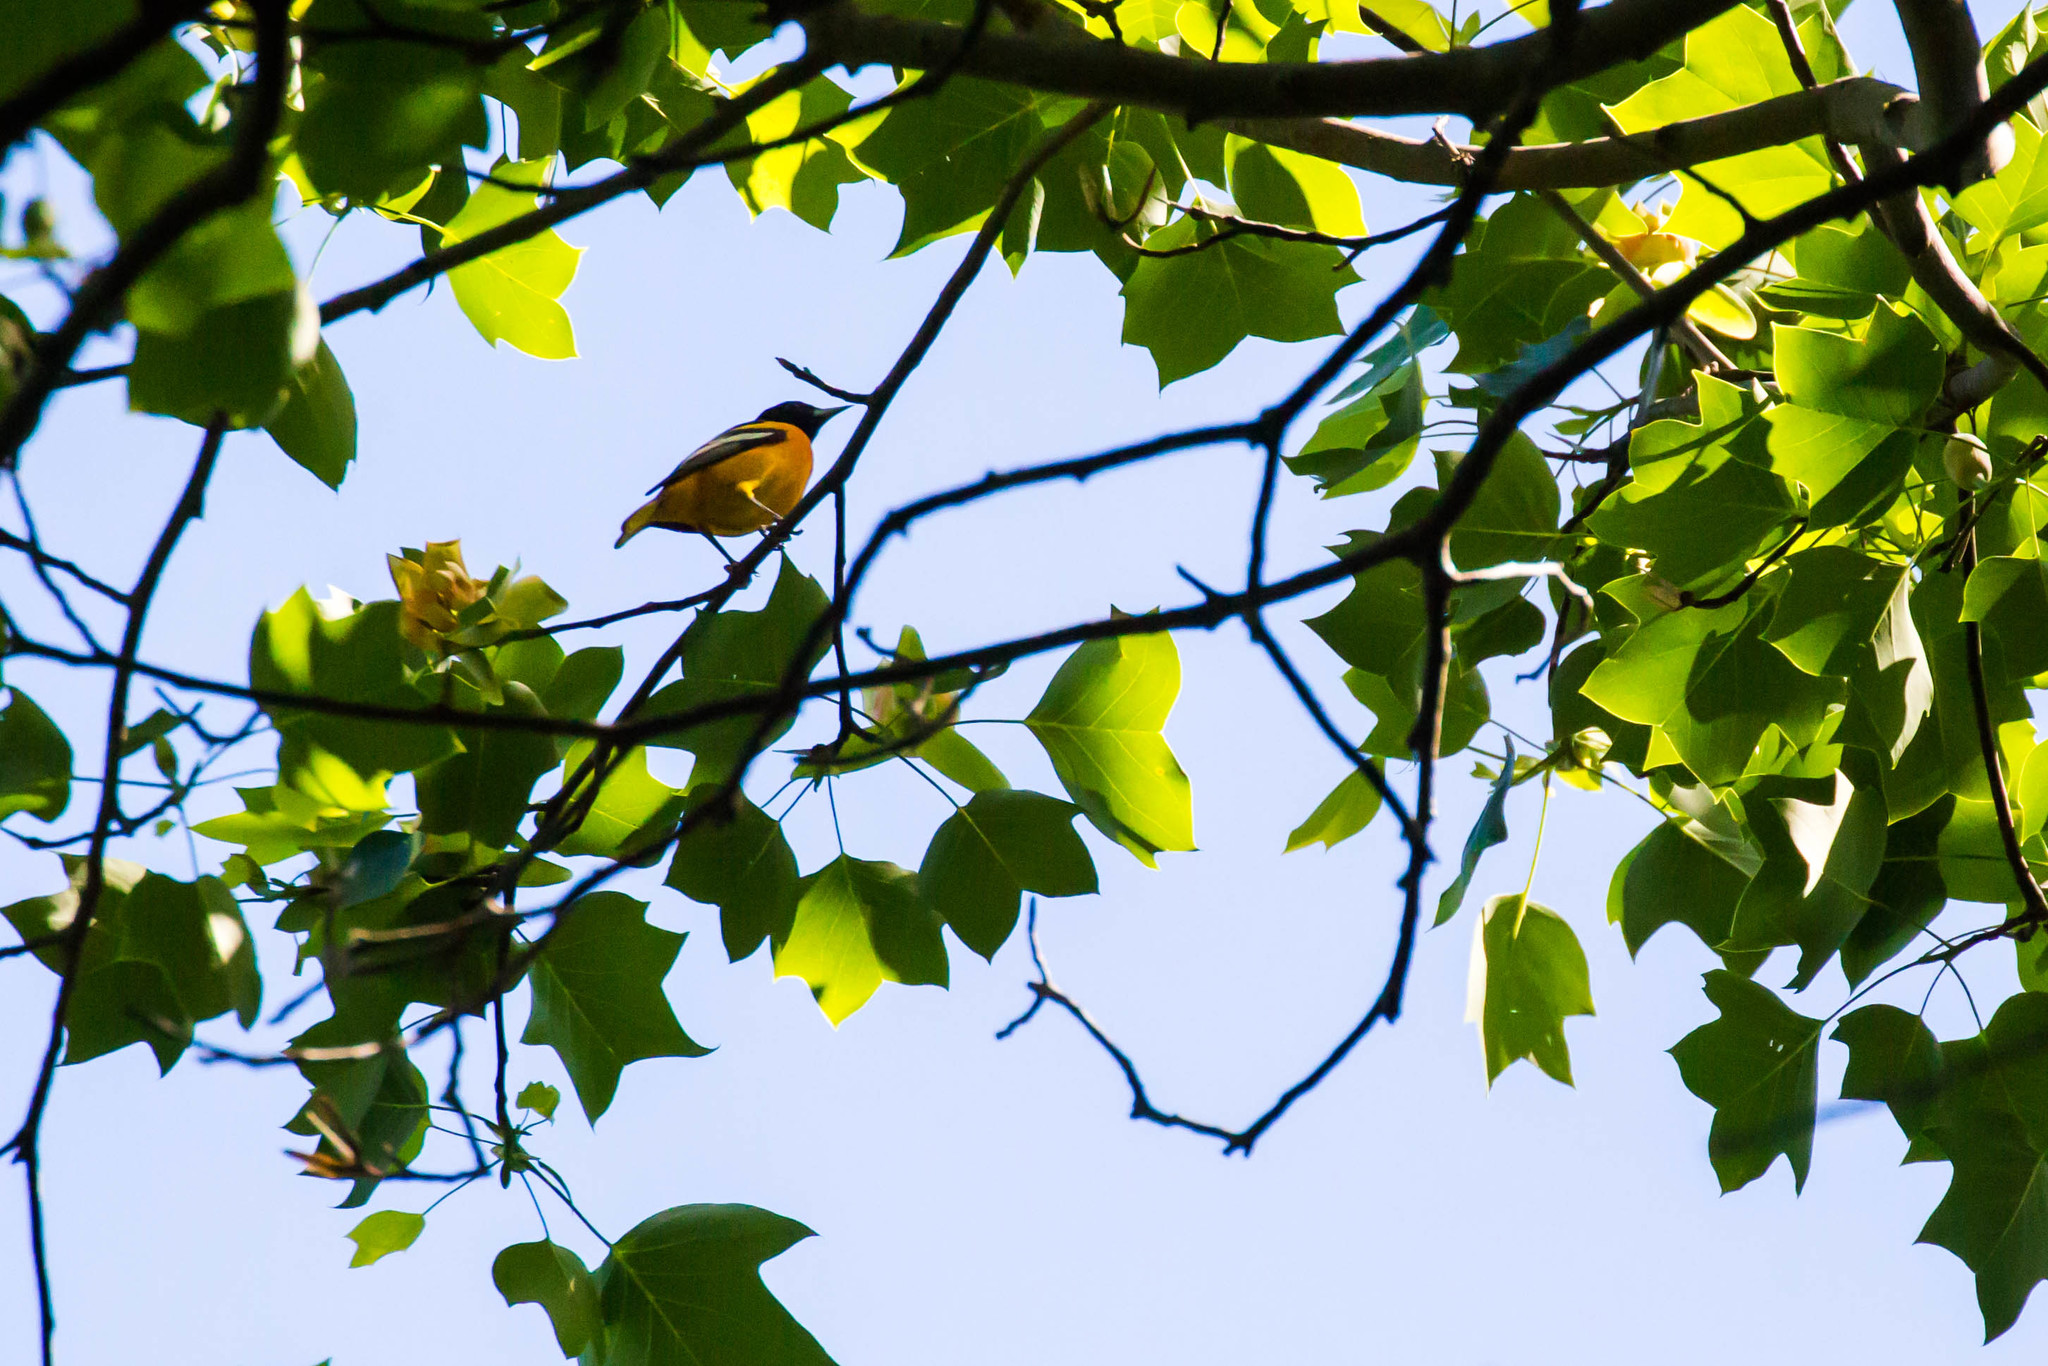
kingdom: Animalia
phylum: Chordata
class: Aves
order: Passeriformes
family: Icteridae
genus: Icterus
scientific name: Icterus galbula
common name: Baltimore oriole
